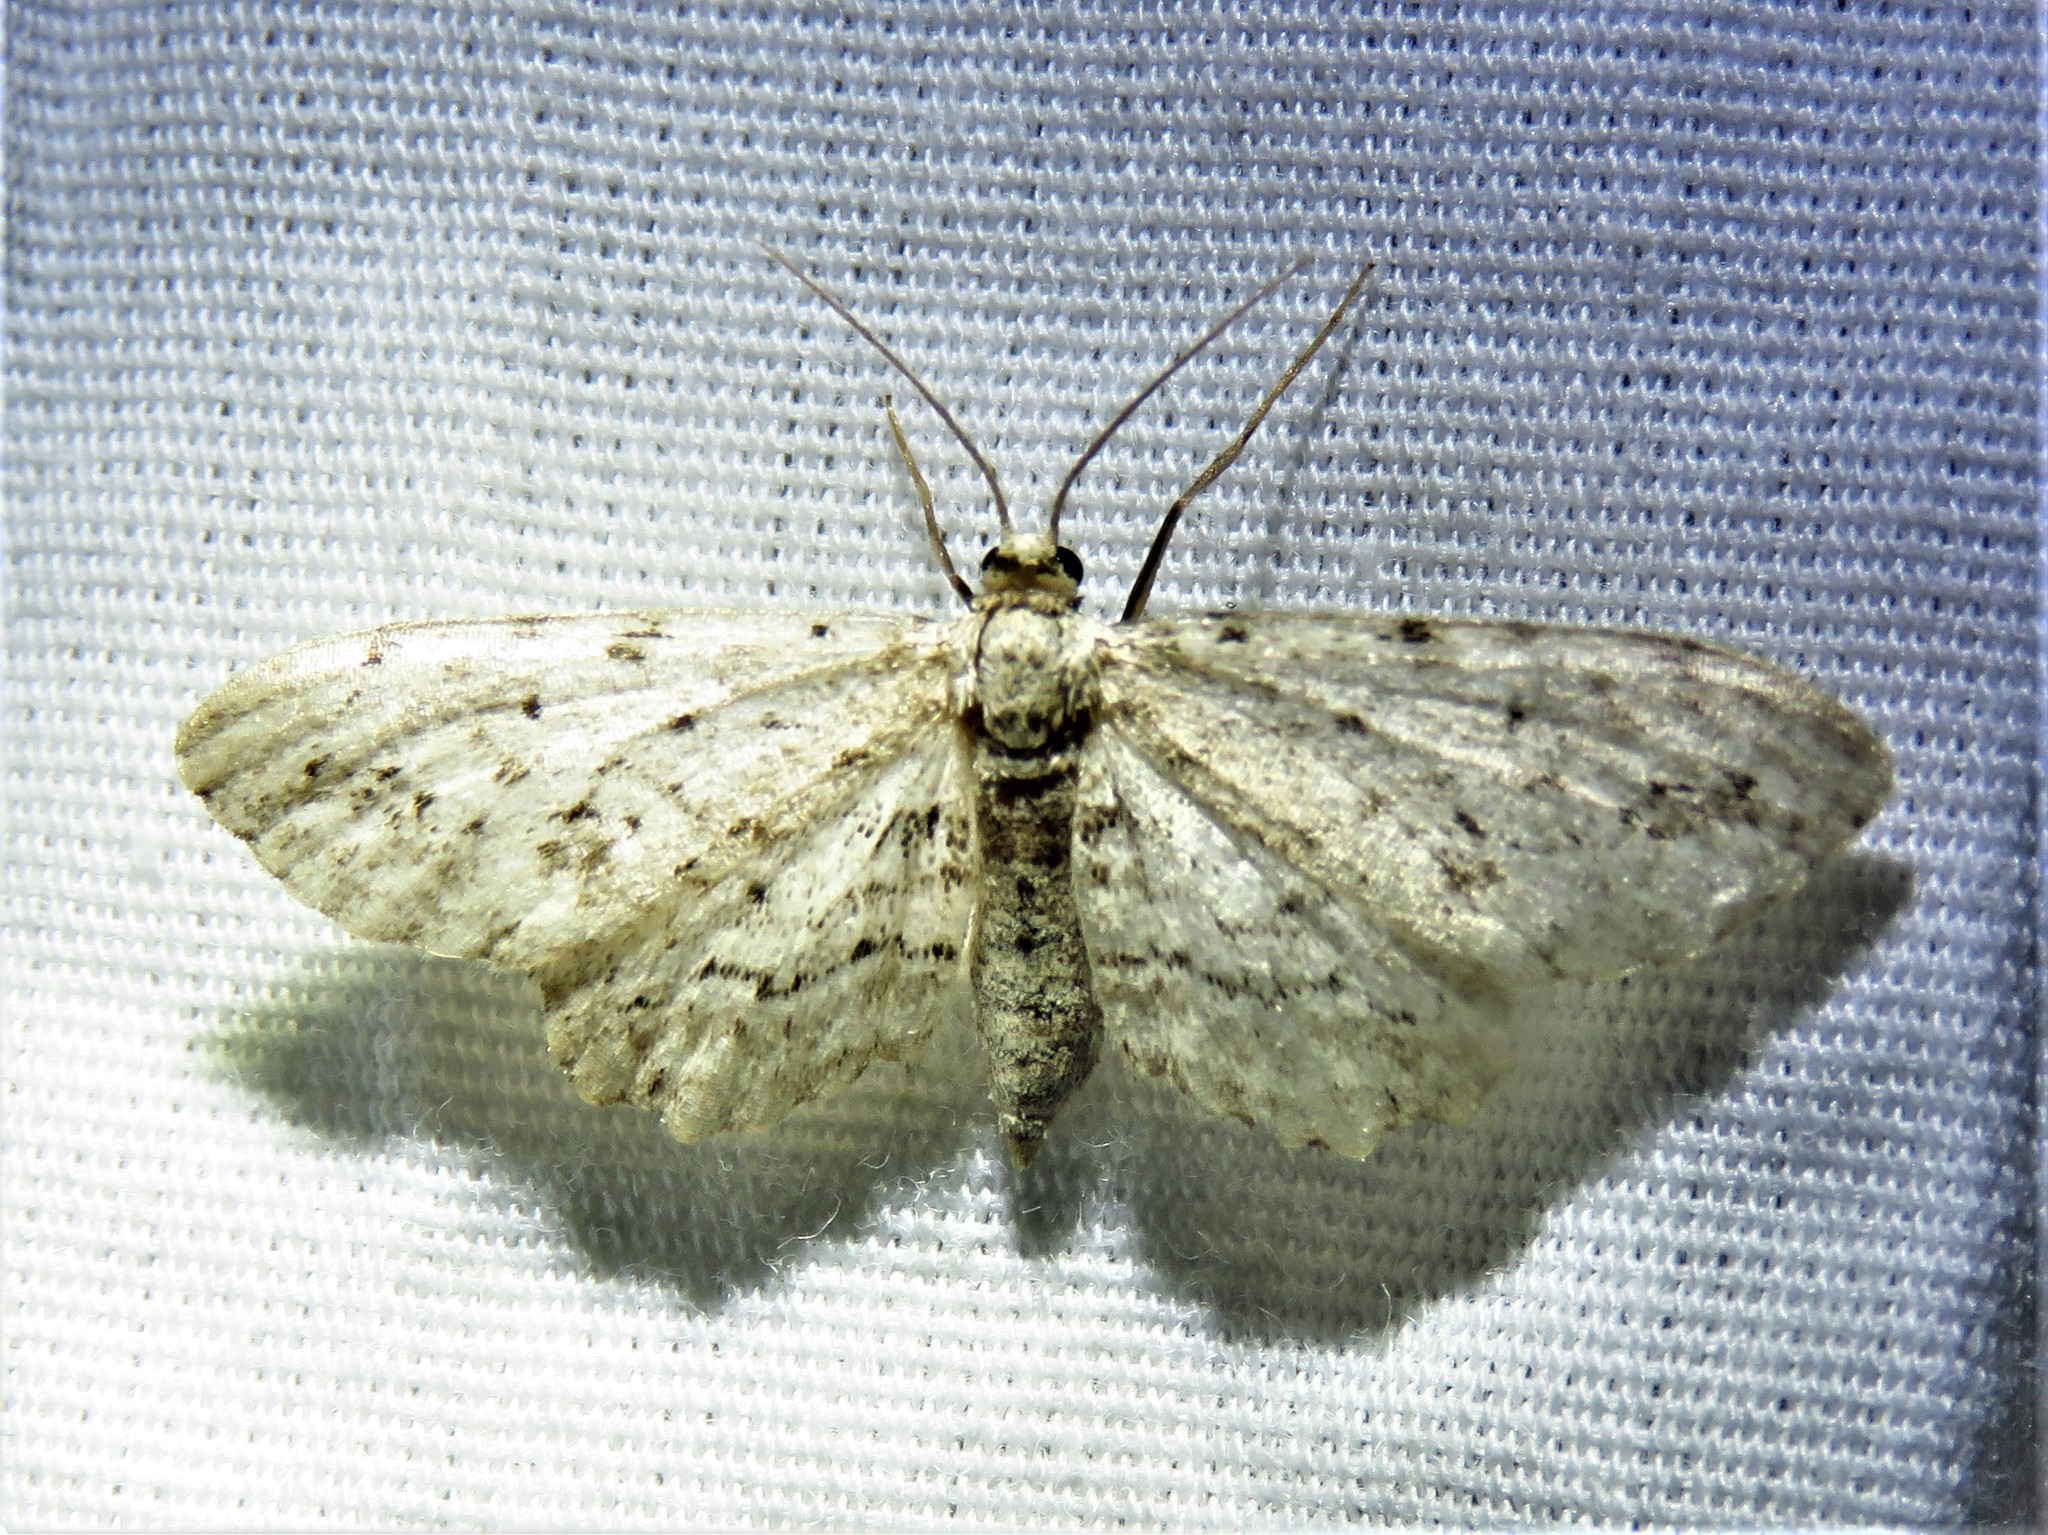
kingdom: Animalia
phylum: Arthropoda
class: Insecta
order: Lepidoptera
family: Geometridae
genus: Pimaphera
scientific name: Pimaphera sparsaria
